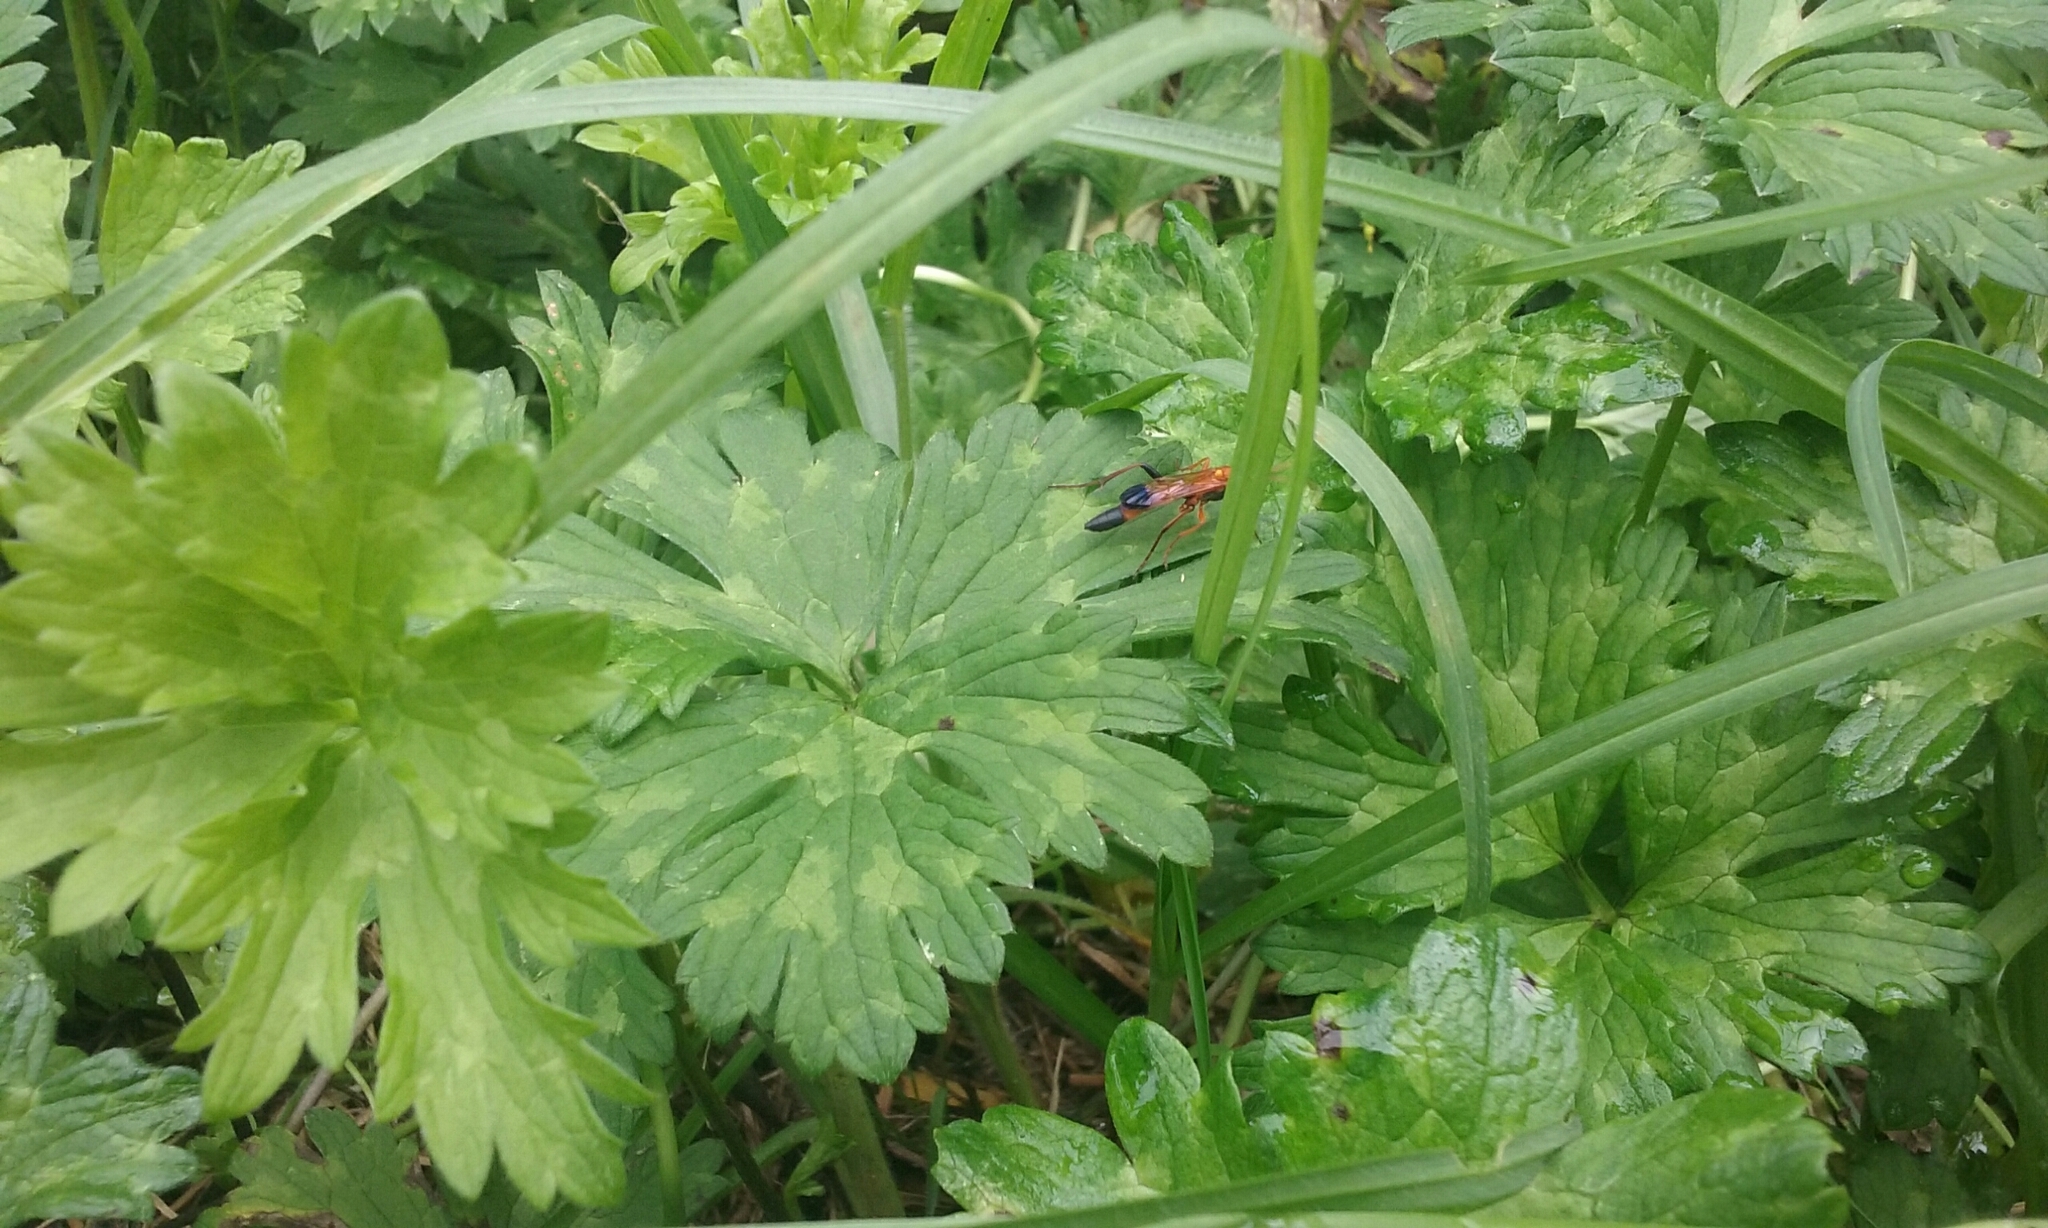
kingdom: Animalia
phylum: Arthropoda
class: Insecta
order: Hymenoptera
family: Ichneumonidae
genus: Ctenochares
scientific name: Ctenochares bicolorus
